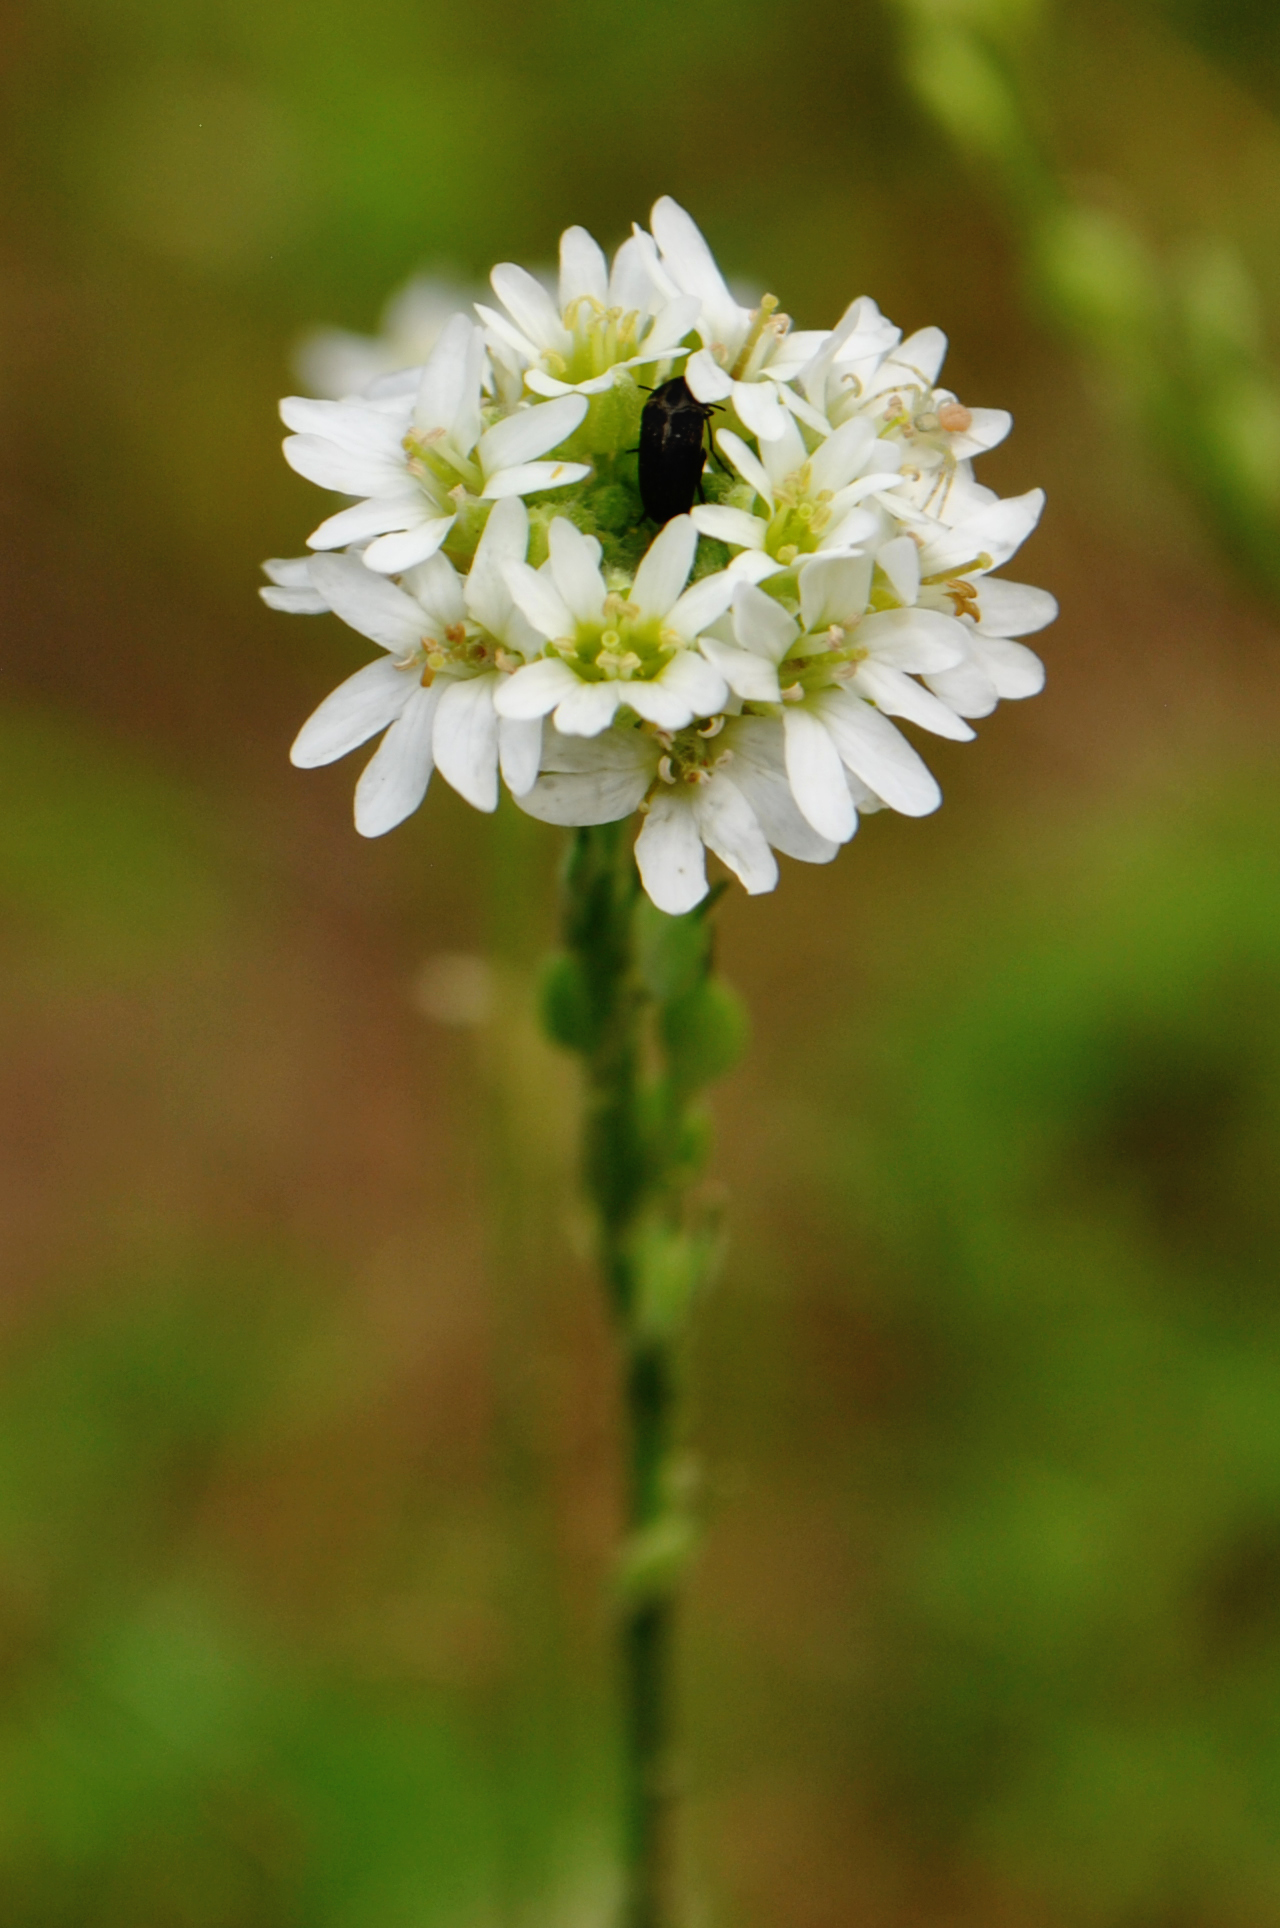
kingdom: Plantae
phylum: Tracheophyta
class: Magnoliopsida
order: Brassicales
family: Brassicaceae
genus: Berteroa
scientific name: Berteroa incana
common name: Hoary alison
